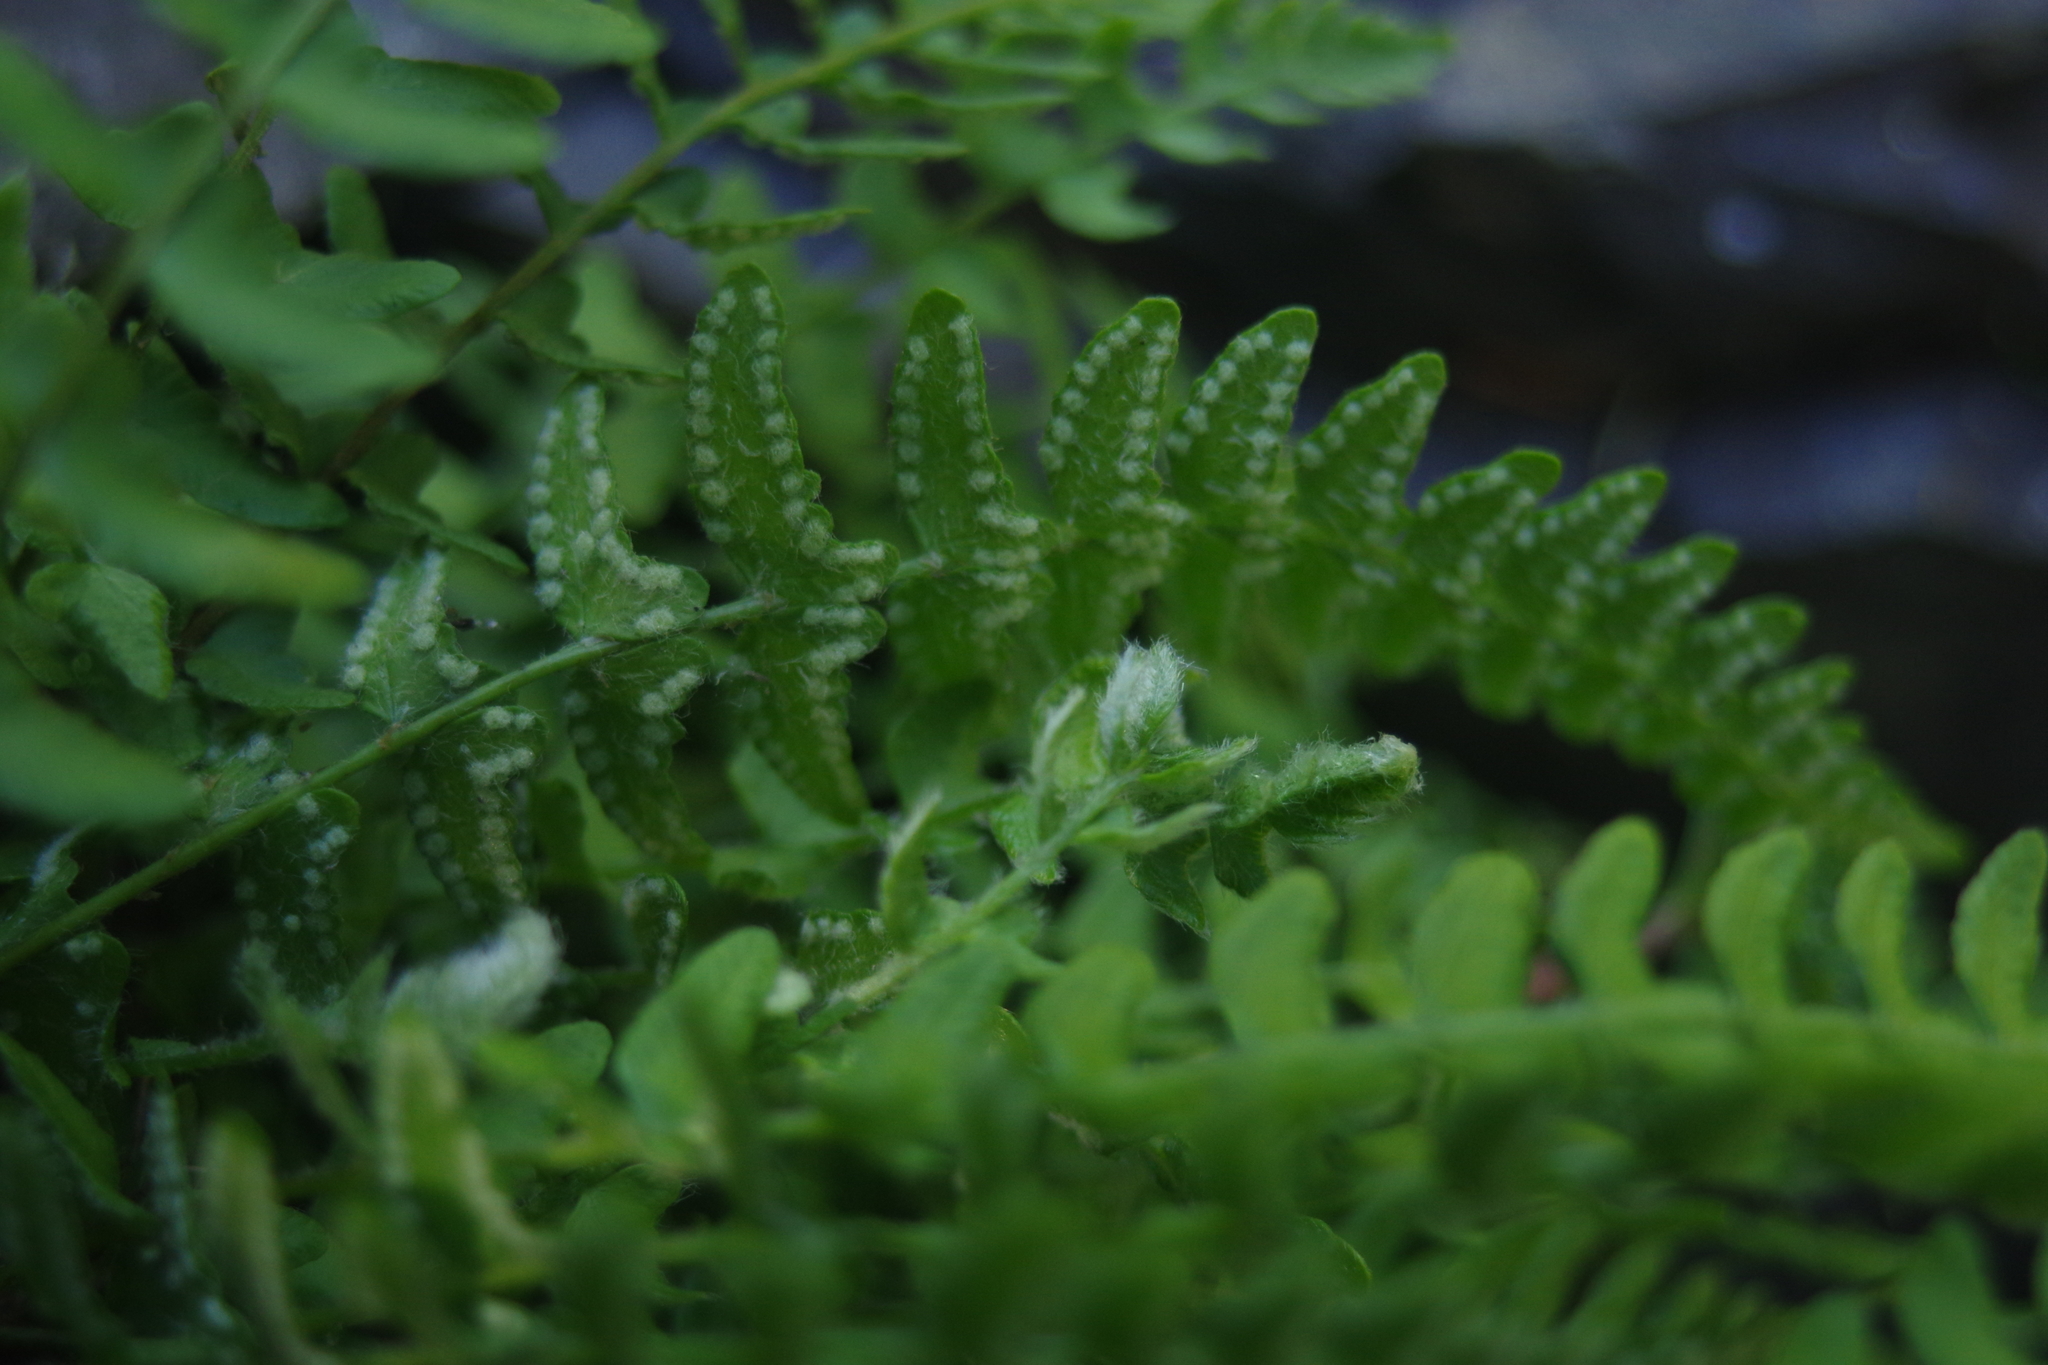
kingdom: Plantae
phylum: Tracheophyta
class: Polypodiopsida
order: Polypodiales
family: Woodsiaceae
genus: Woodsia
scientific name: Woodsia polystichoides
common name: Holly fern woodsia
